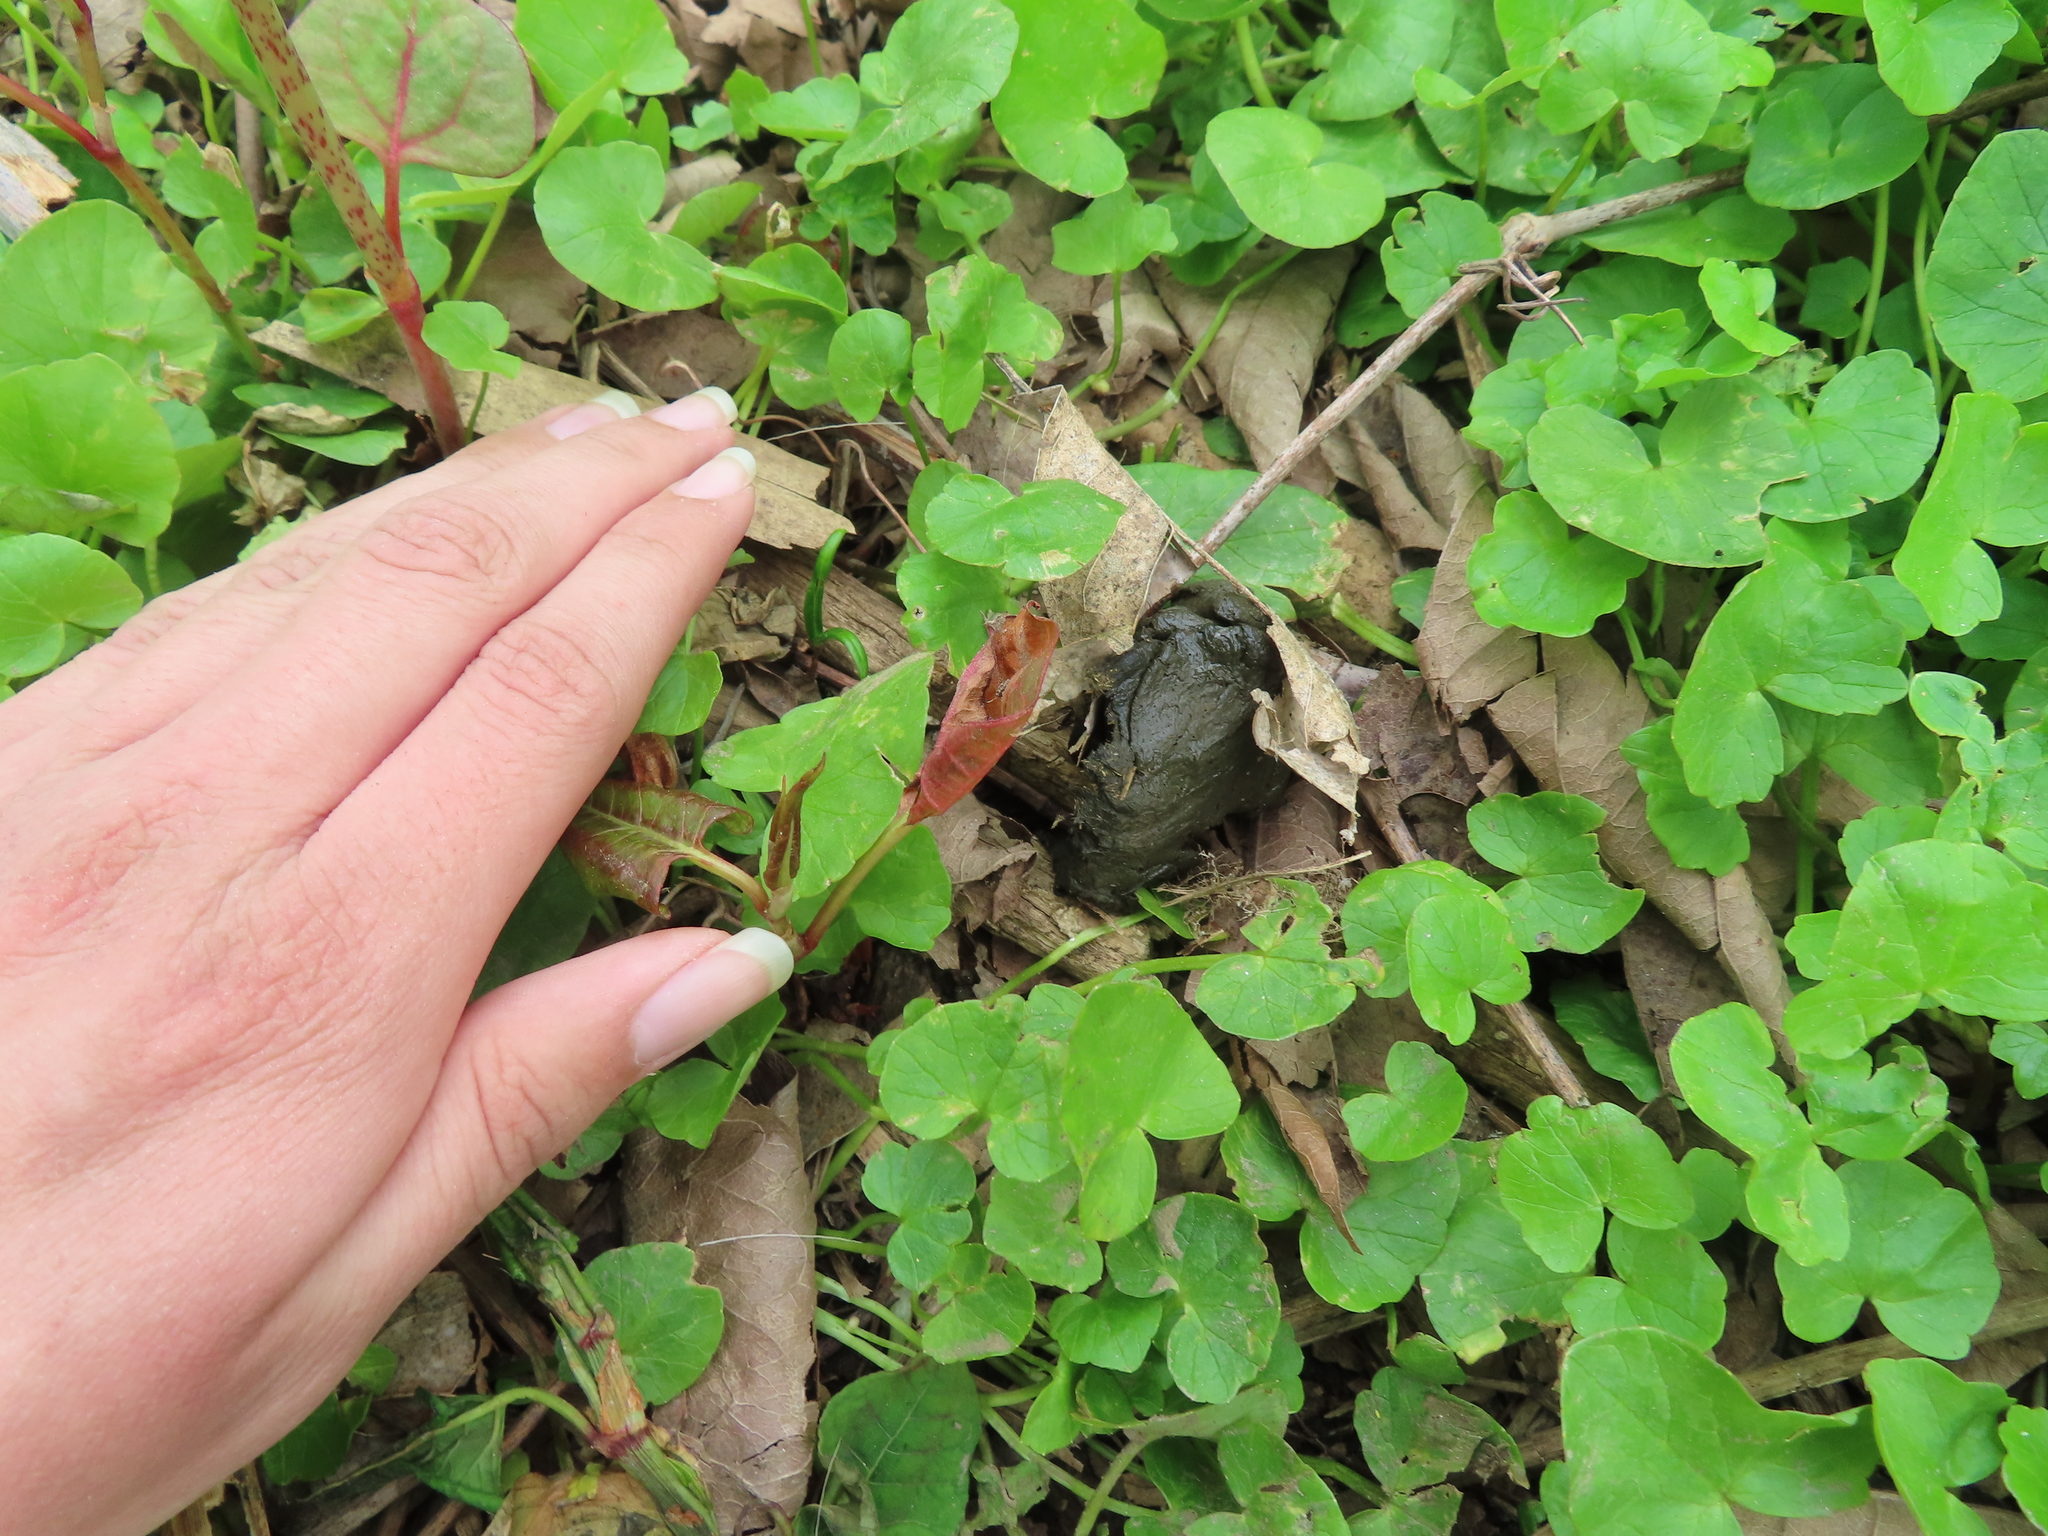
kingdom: Animalia
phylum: Chordata
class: Mammalia
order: Artiodactyla
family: Cervidae
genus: Odocoileus
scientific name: Odocoileus virginianus
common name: White-tailed deer
